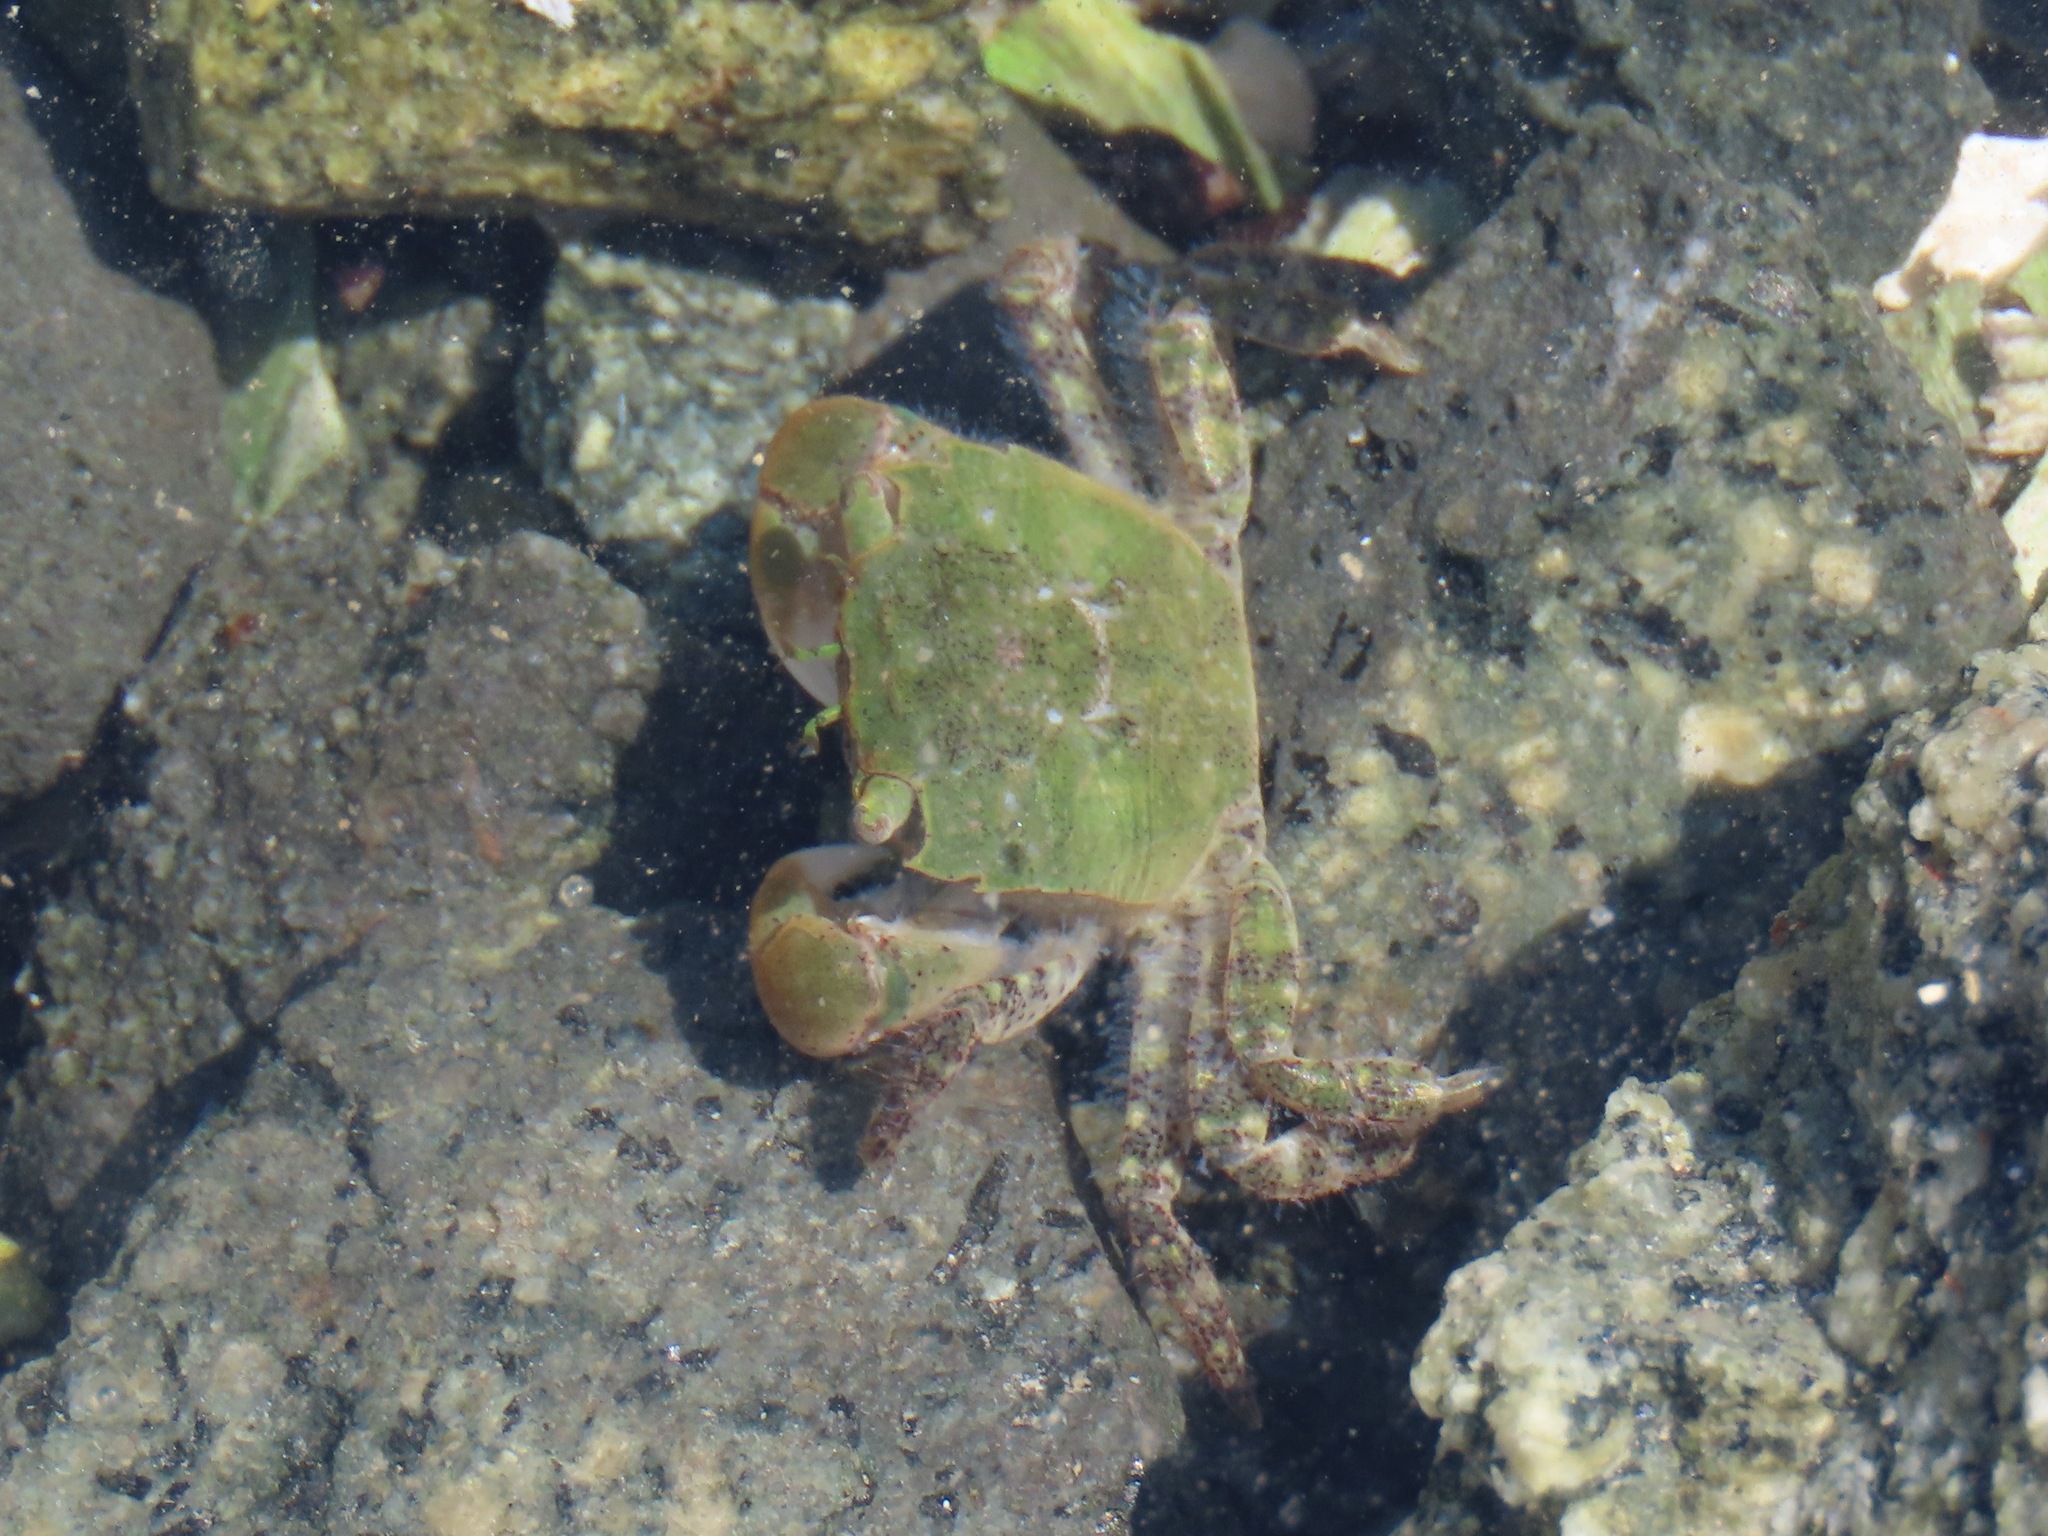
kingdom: Animalia
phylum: Arthropoda
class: Malacostraca
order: Decapoda
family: Varunidae
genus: Hemigrapsus
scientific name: Hemigrapsus oregonensis
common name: Yellow shore crab
